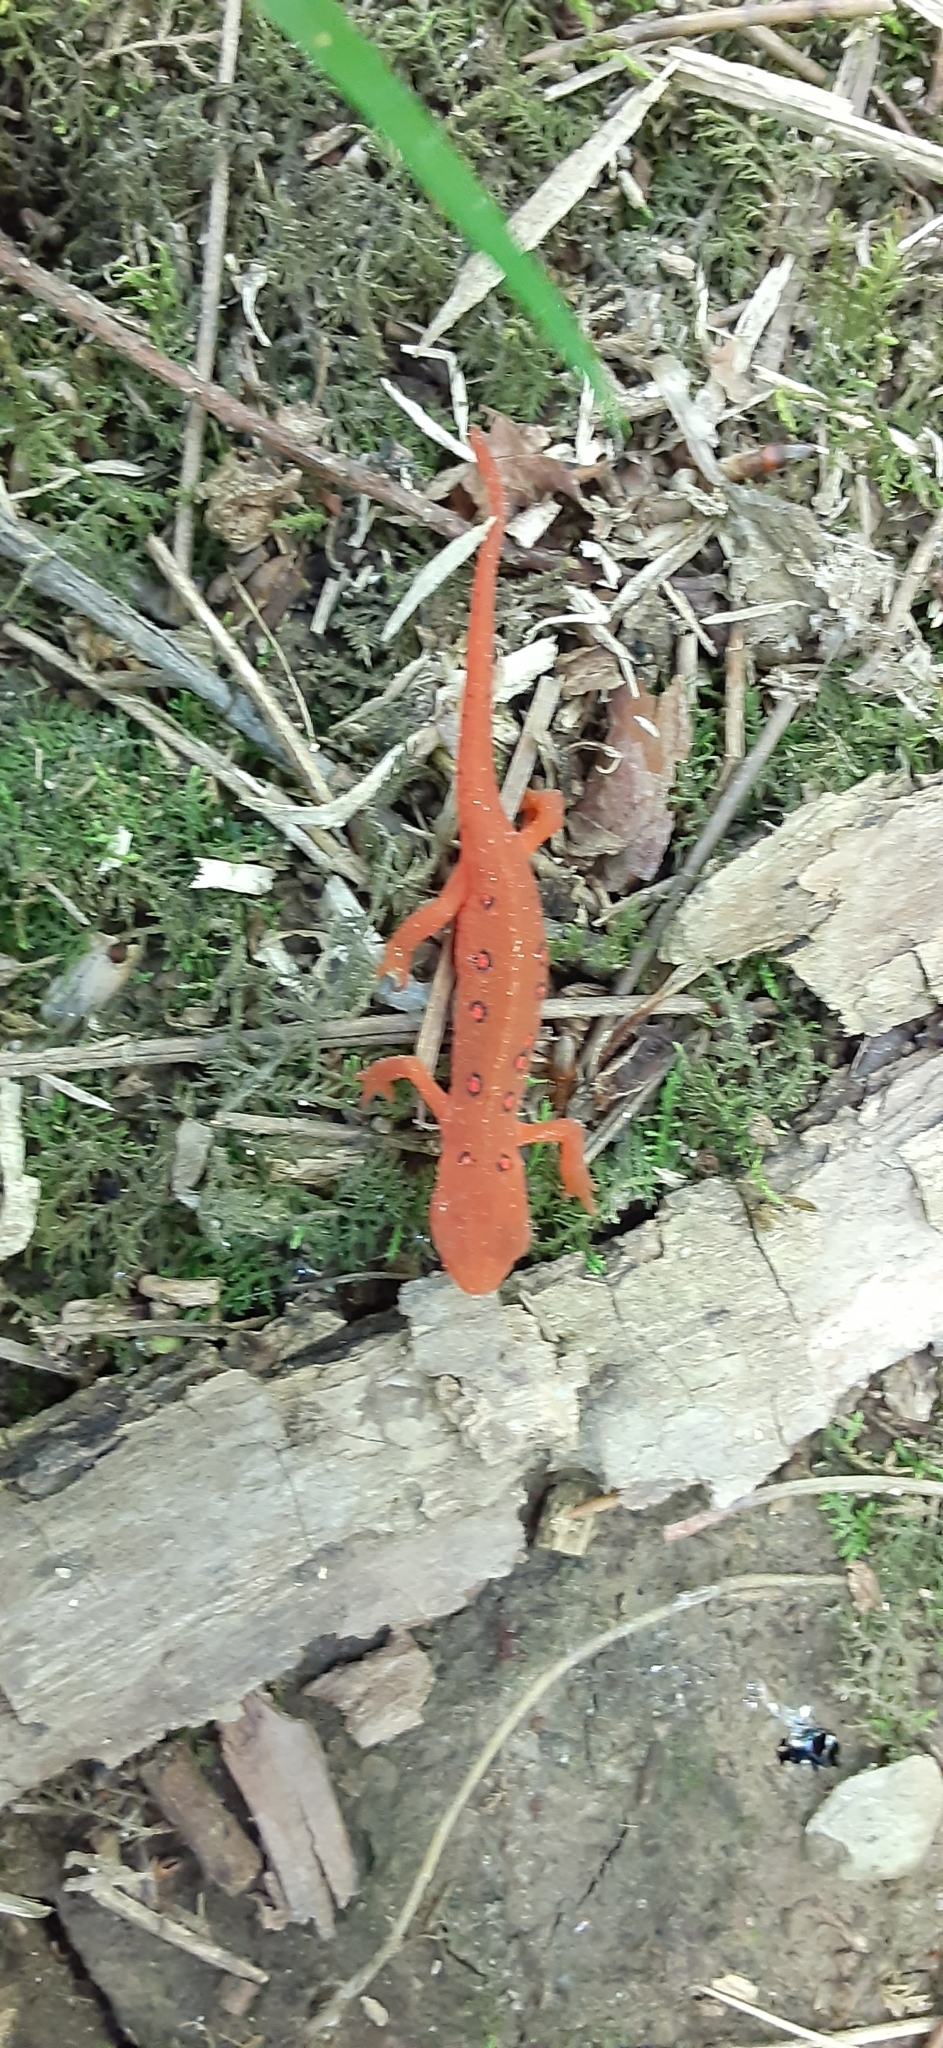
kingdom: Animalia
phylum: Chordata
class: Amphibia
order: Caudata
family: Salamandridae
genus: Notophthalmus
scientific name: Notophthalmus viridescens
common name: Eastern newt
